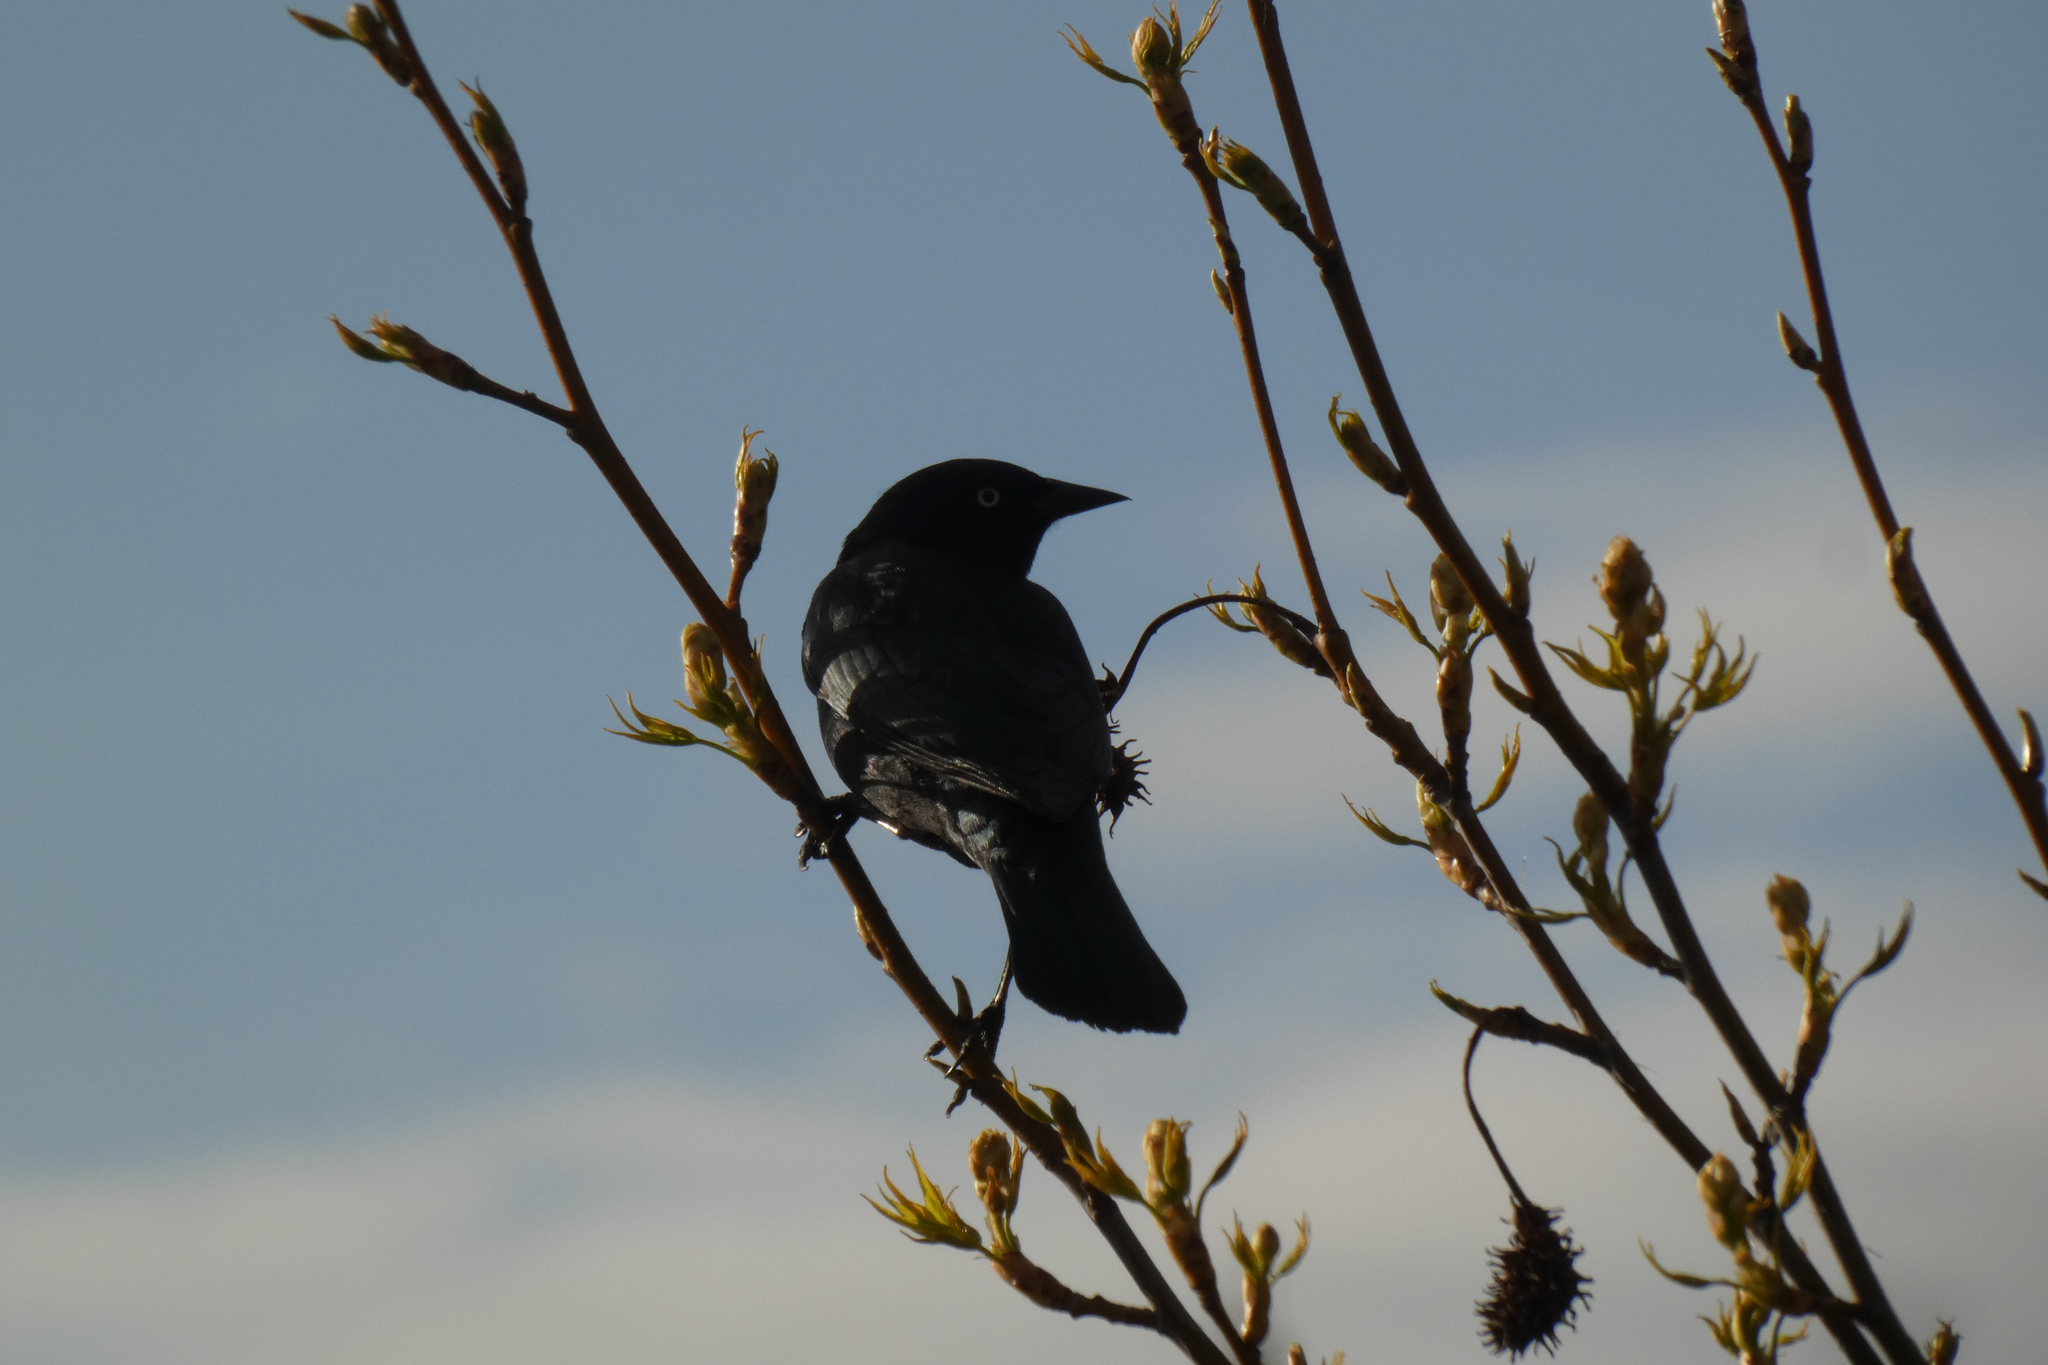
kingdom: Animalia
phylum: Chordata
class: Aves
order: Passeriformes
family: Icteridae
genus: Euphagus
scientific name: Euphagus cyanocephalus
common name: Brewer's blackbird
